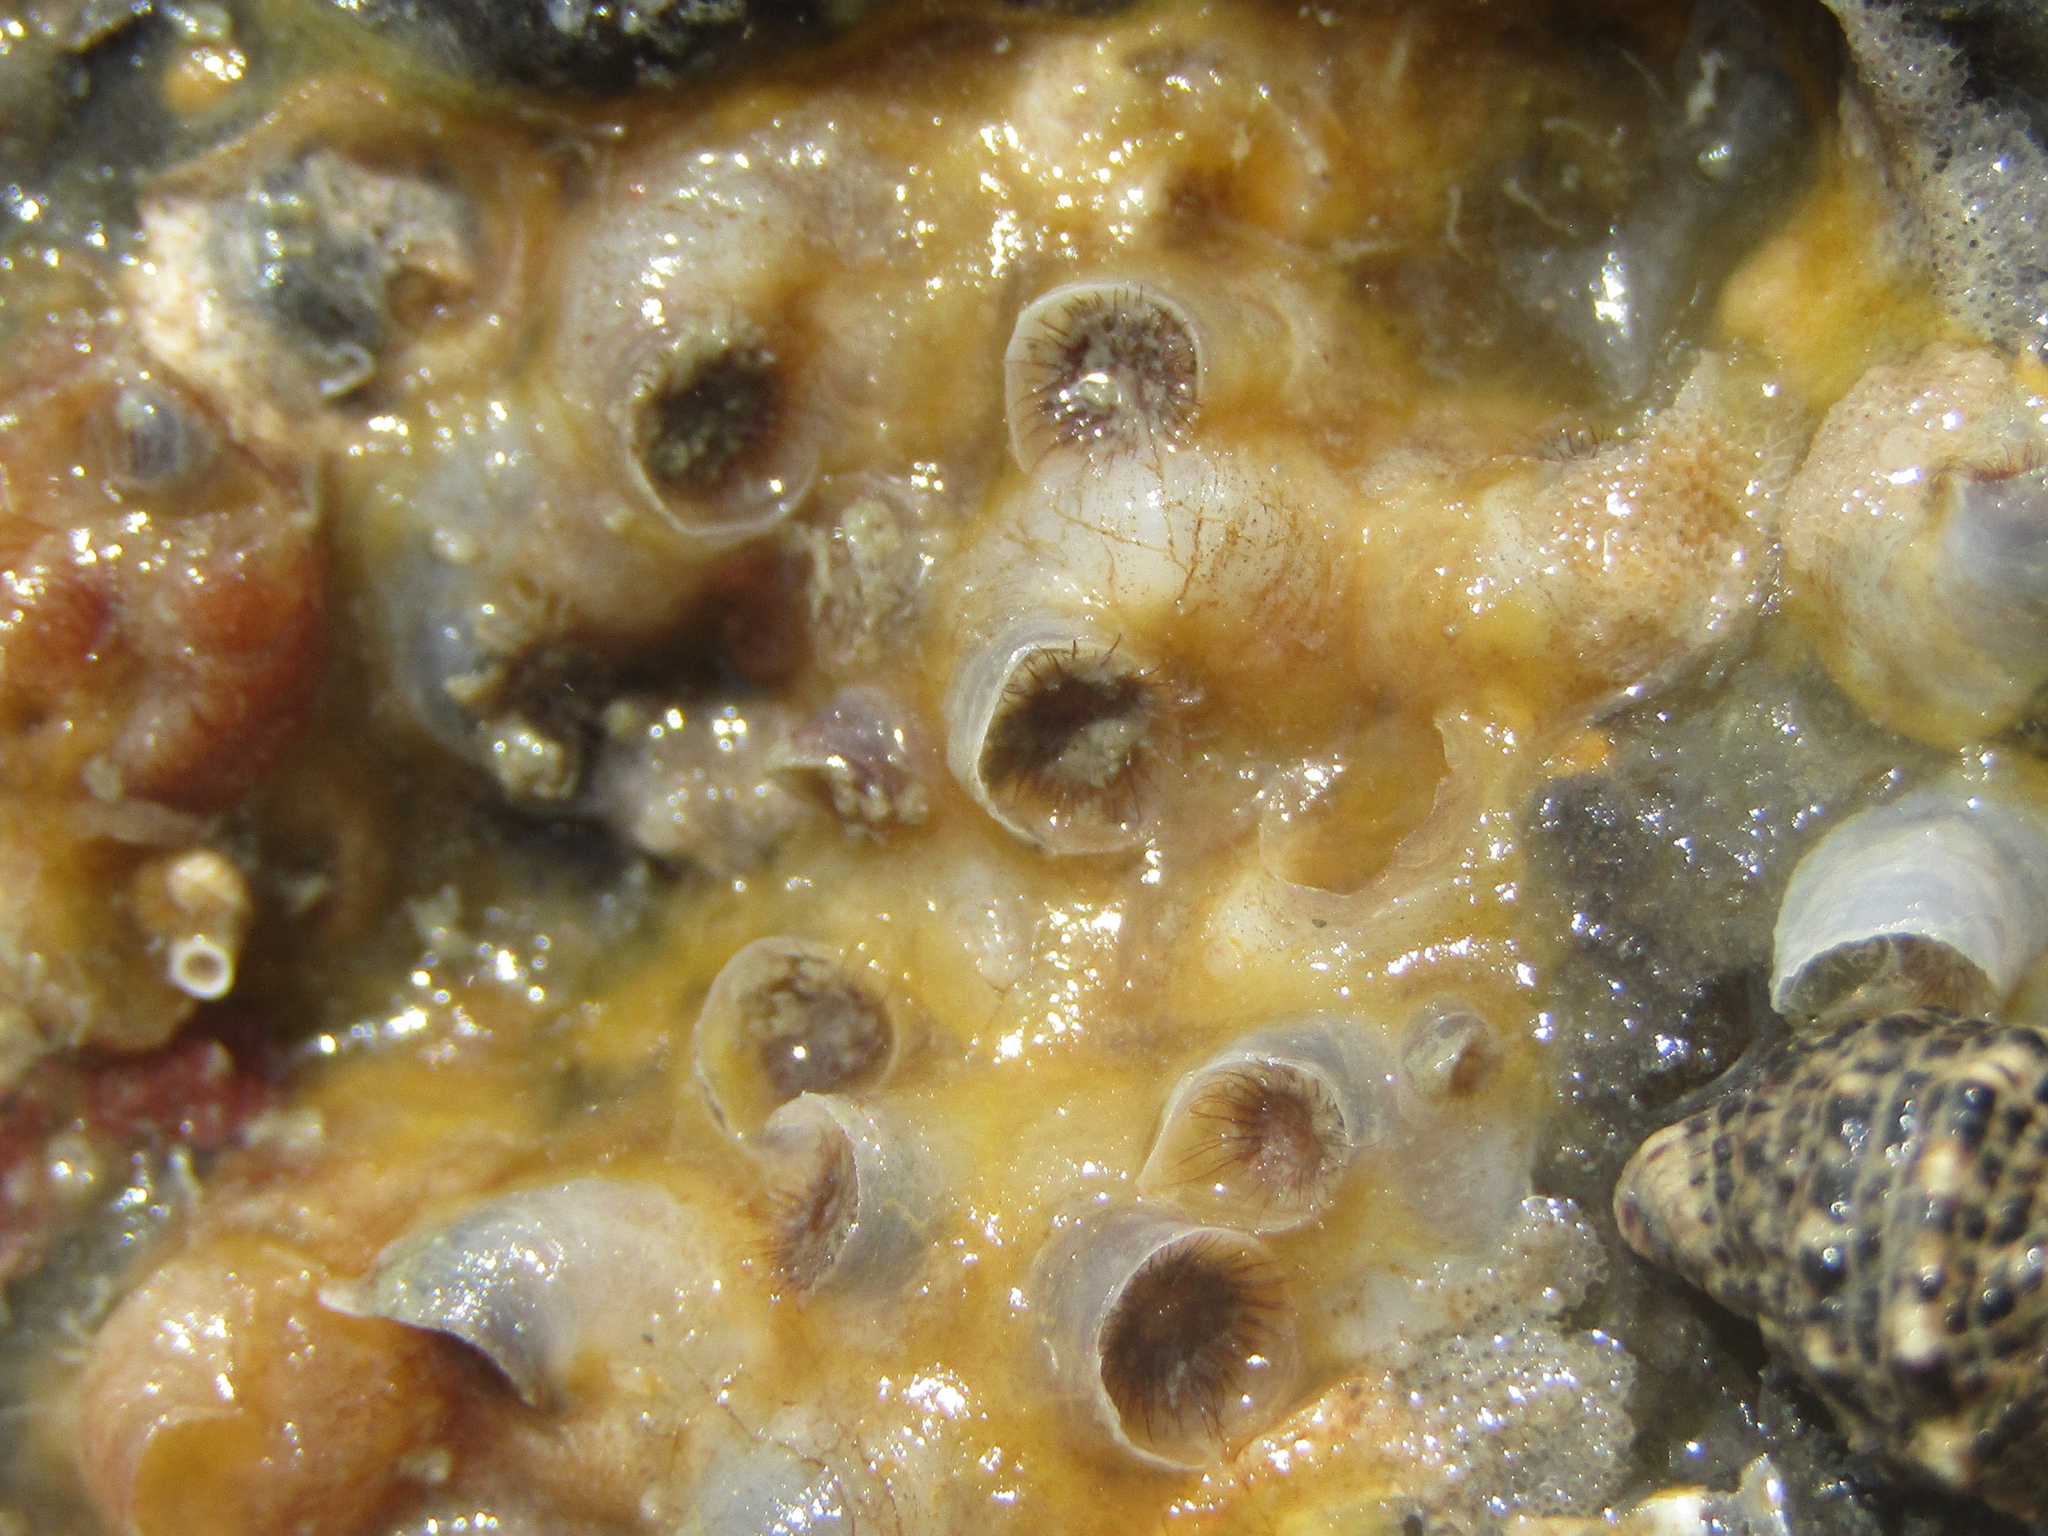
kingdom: Animalia
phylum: Mollusca
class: Gastropoda
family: Siliquariidae
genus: Stephopoma
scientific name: Stephopoma roseum
